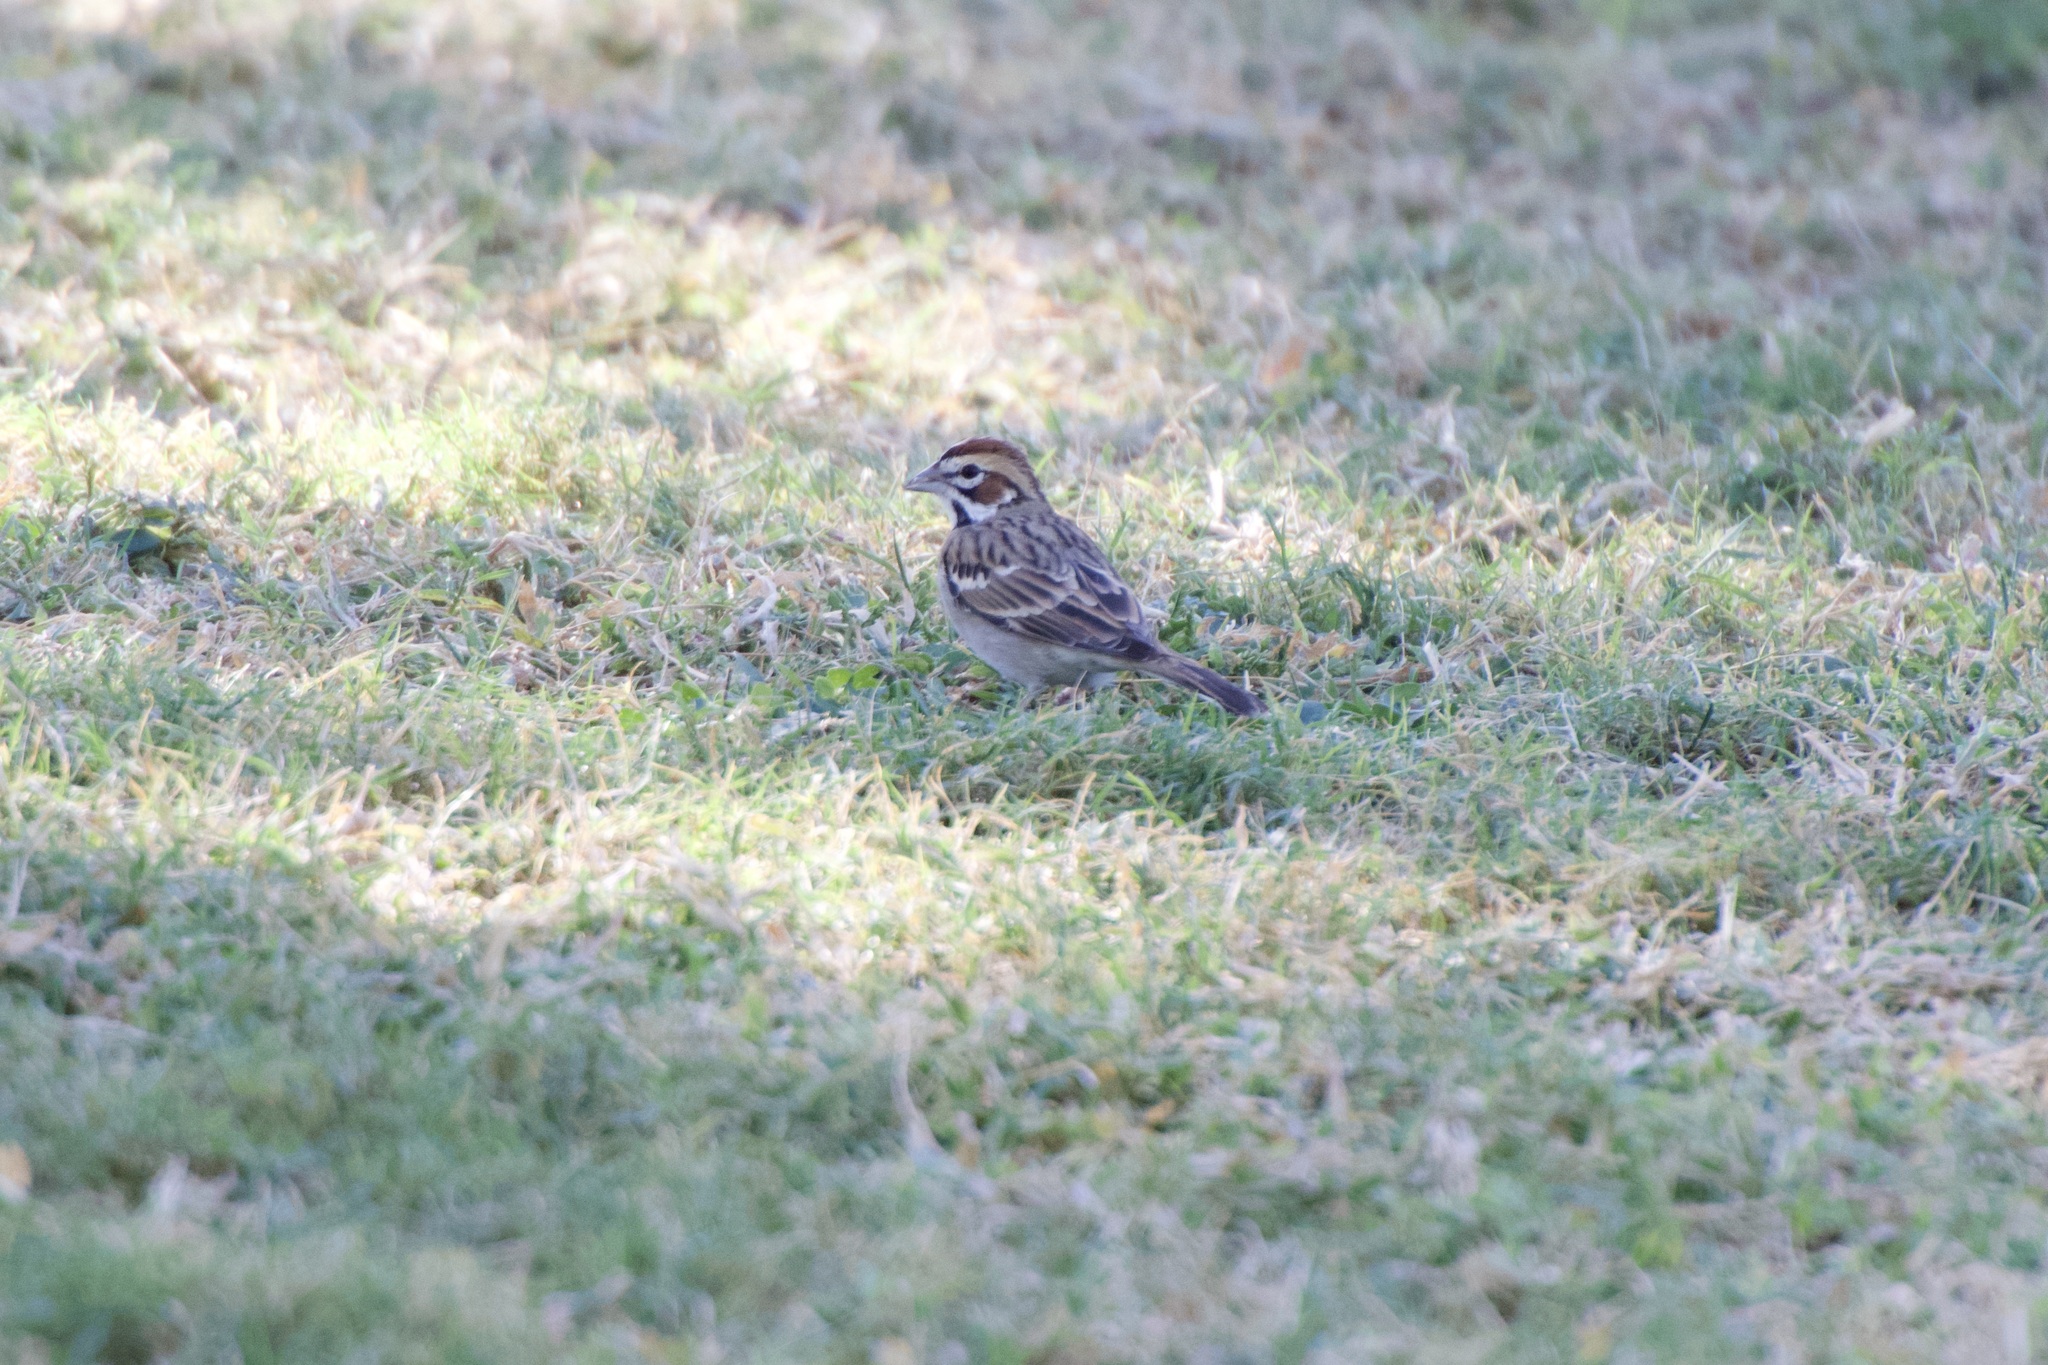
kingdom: Animalia
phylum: Chordata
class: Aves
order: Passeriformes
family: Passerellidae
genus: Chondestes
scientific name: Chondestes grammacus
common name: Lark sparrow
